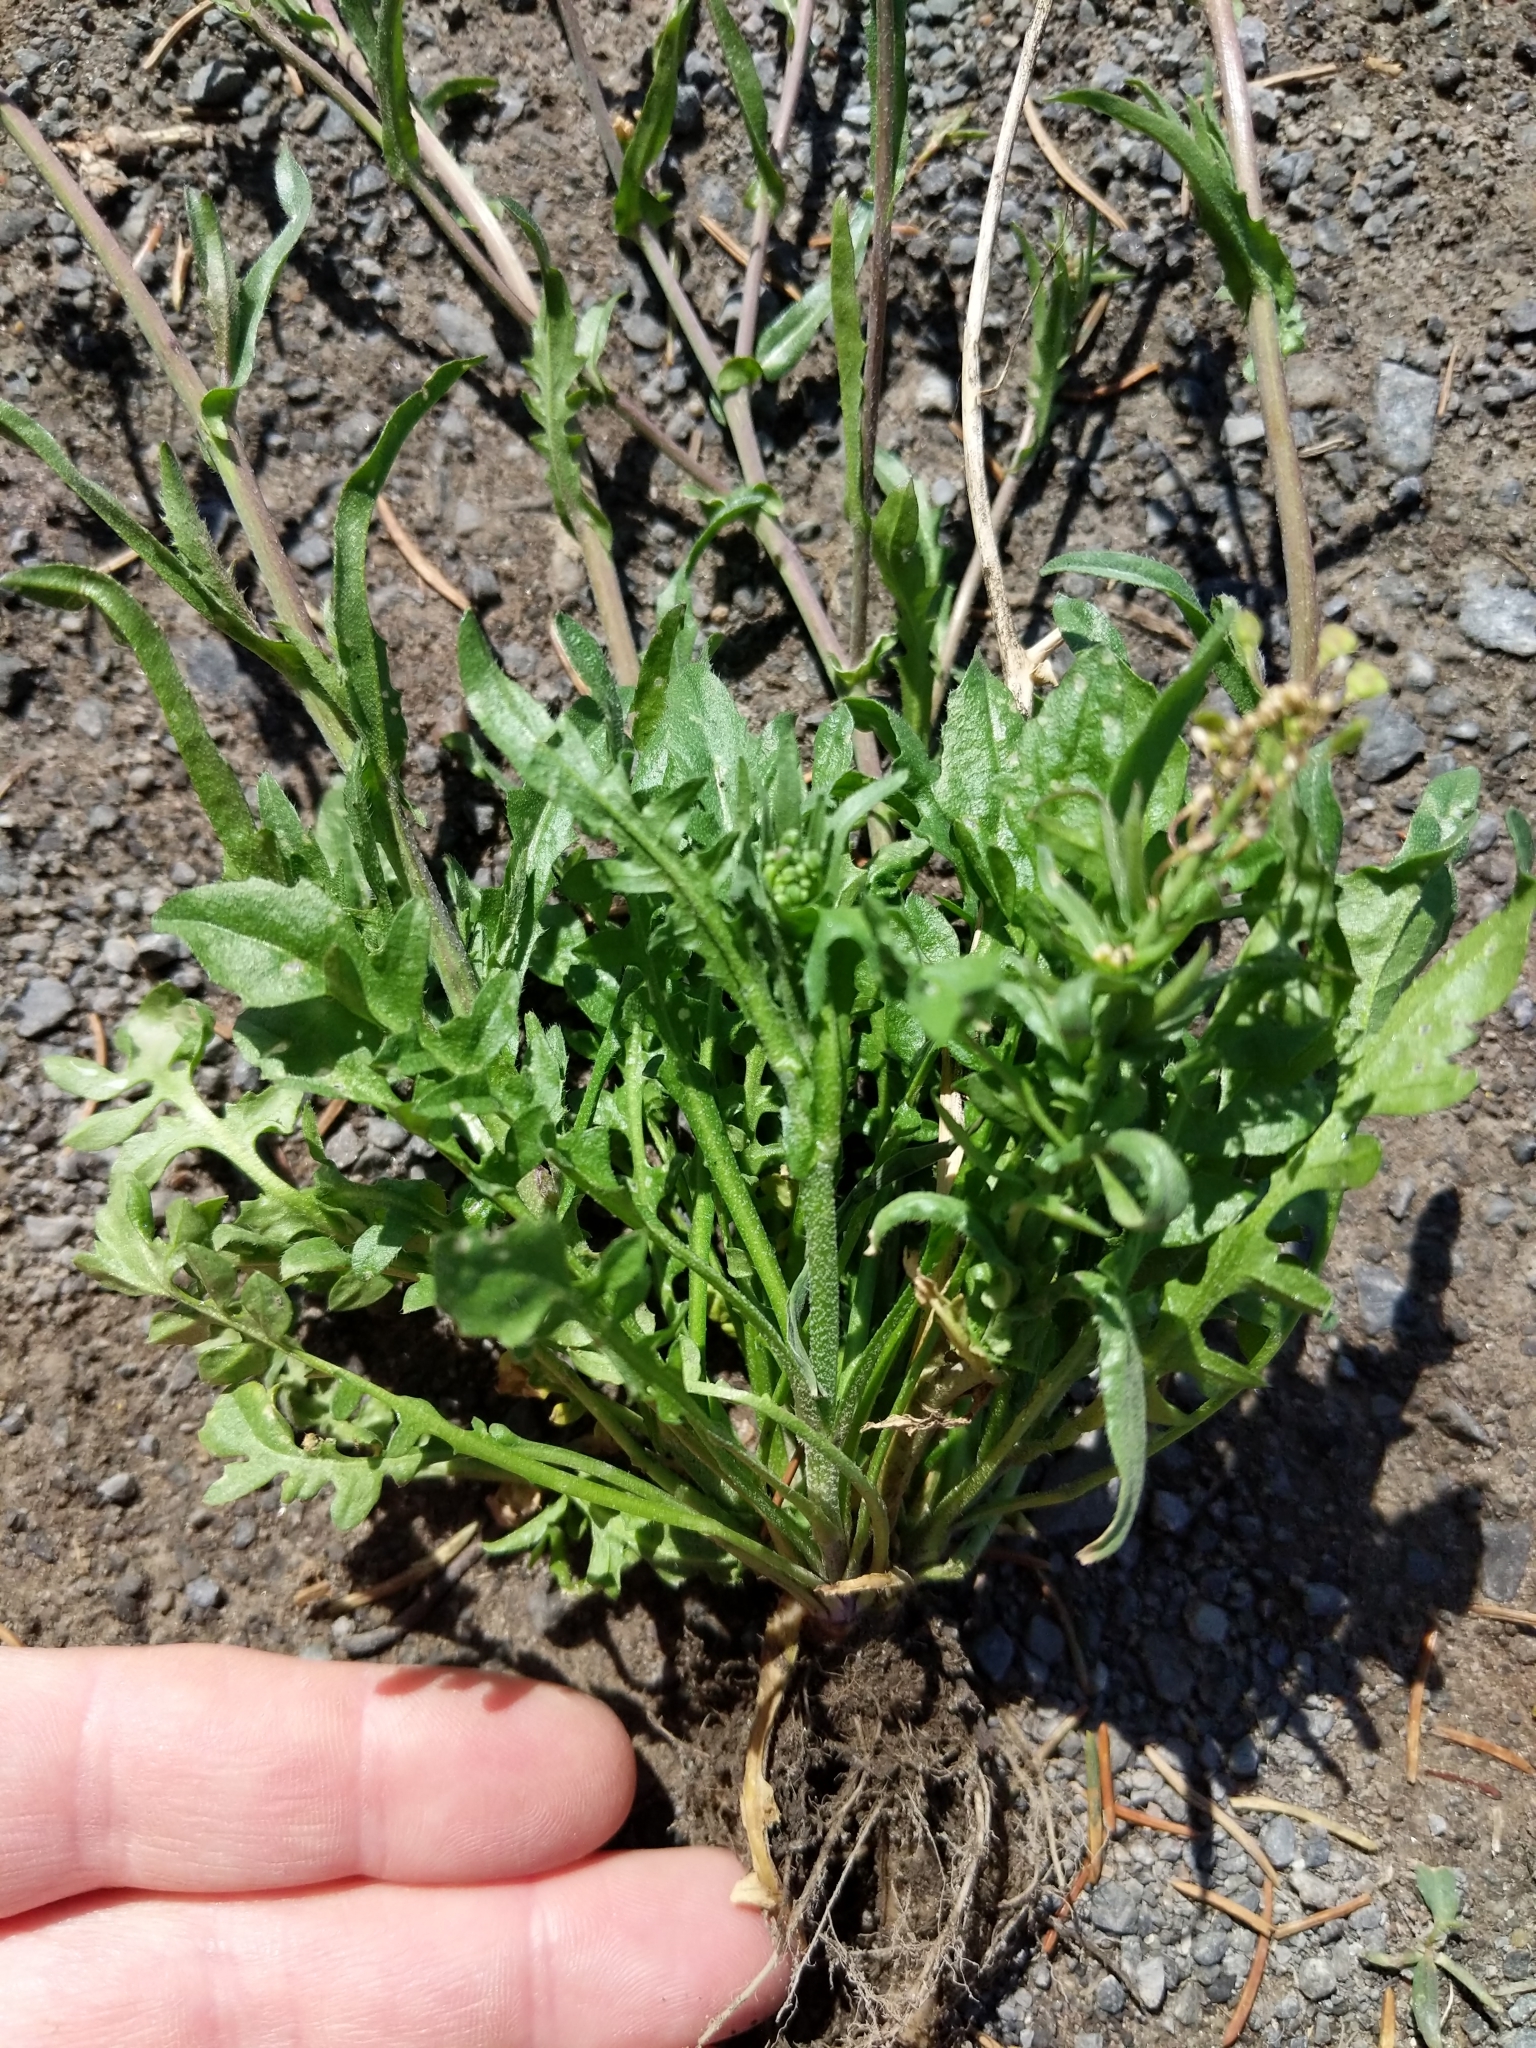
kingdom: Plantae
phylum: Tracheophyta
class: Magnoliopsida
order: Brassicales
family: Brassicaceae
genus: Capsella
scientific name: Capsella bursa-pastoris
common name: Shepherd's purse
